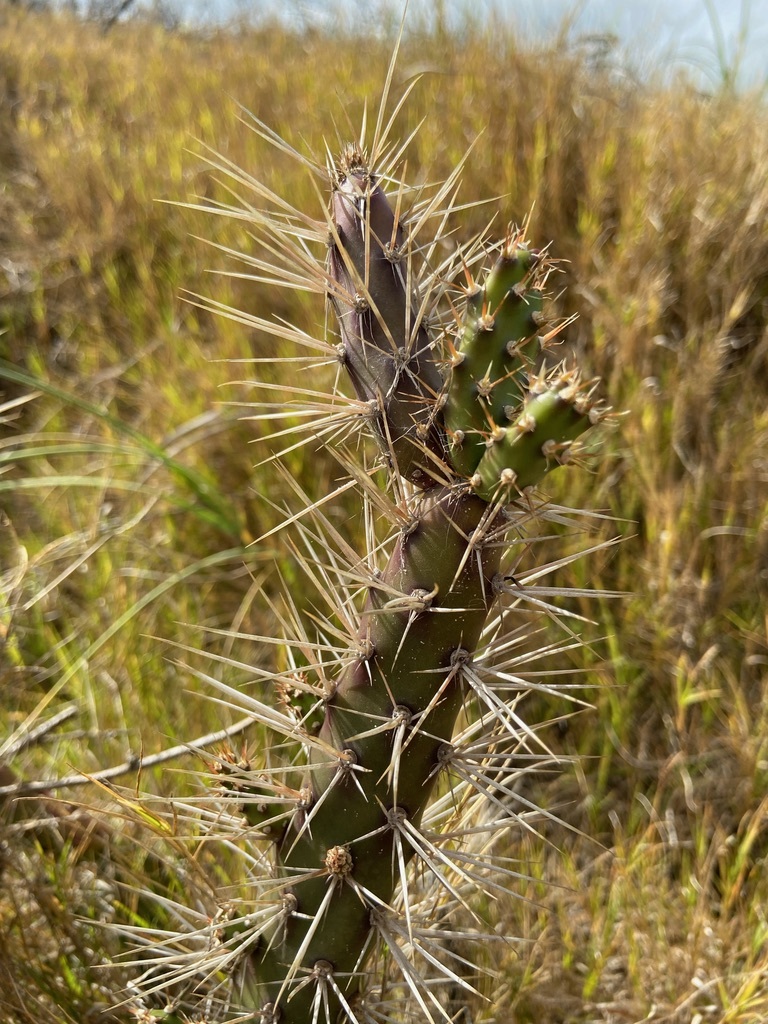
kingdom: Plantae
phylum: Tracheophyta
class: Magnoliopsida
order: Caryophyllales
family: Cactaceae
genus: Opuntia
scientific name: Opuntia aurantiaca
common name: Jointed pricklypear
